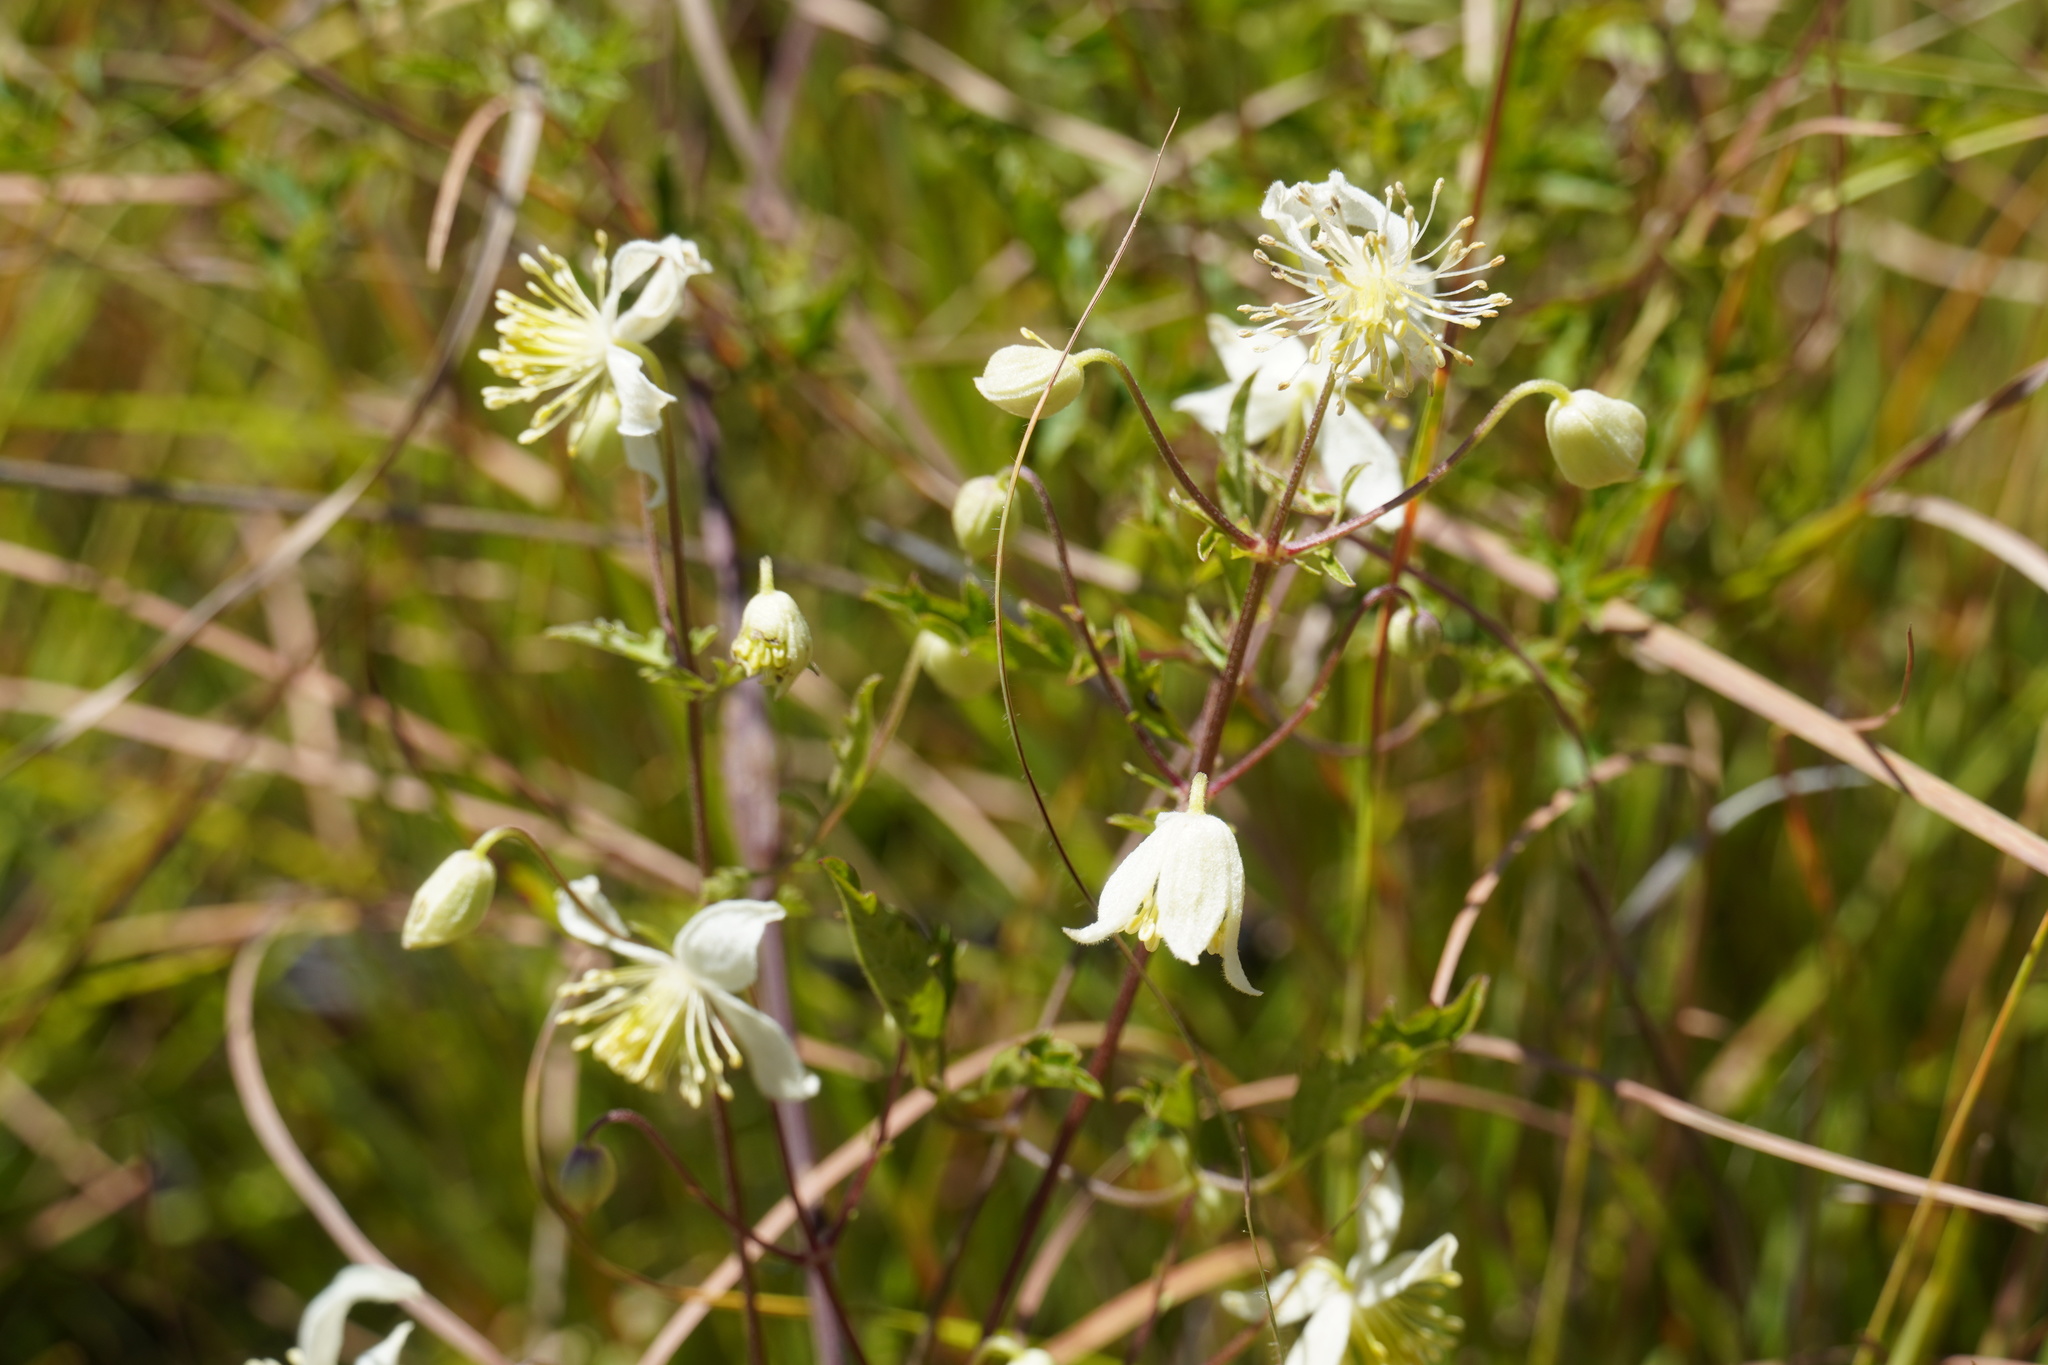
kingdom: Plantae
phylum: Tracheophyta
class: Magnoliopsida
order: Ranunculales
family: Ranunculaceae
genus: Clematis
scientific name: Clematis brachiata
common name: Traveler's-joy
